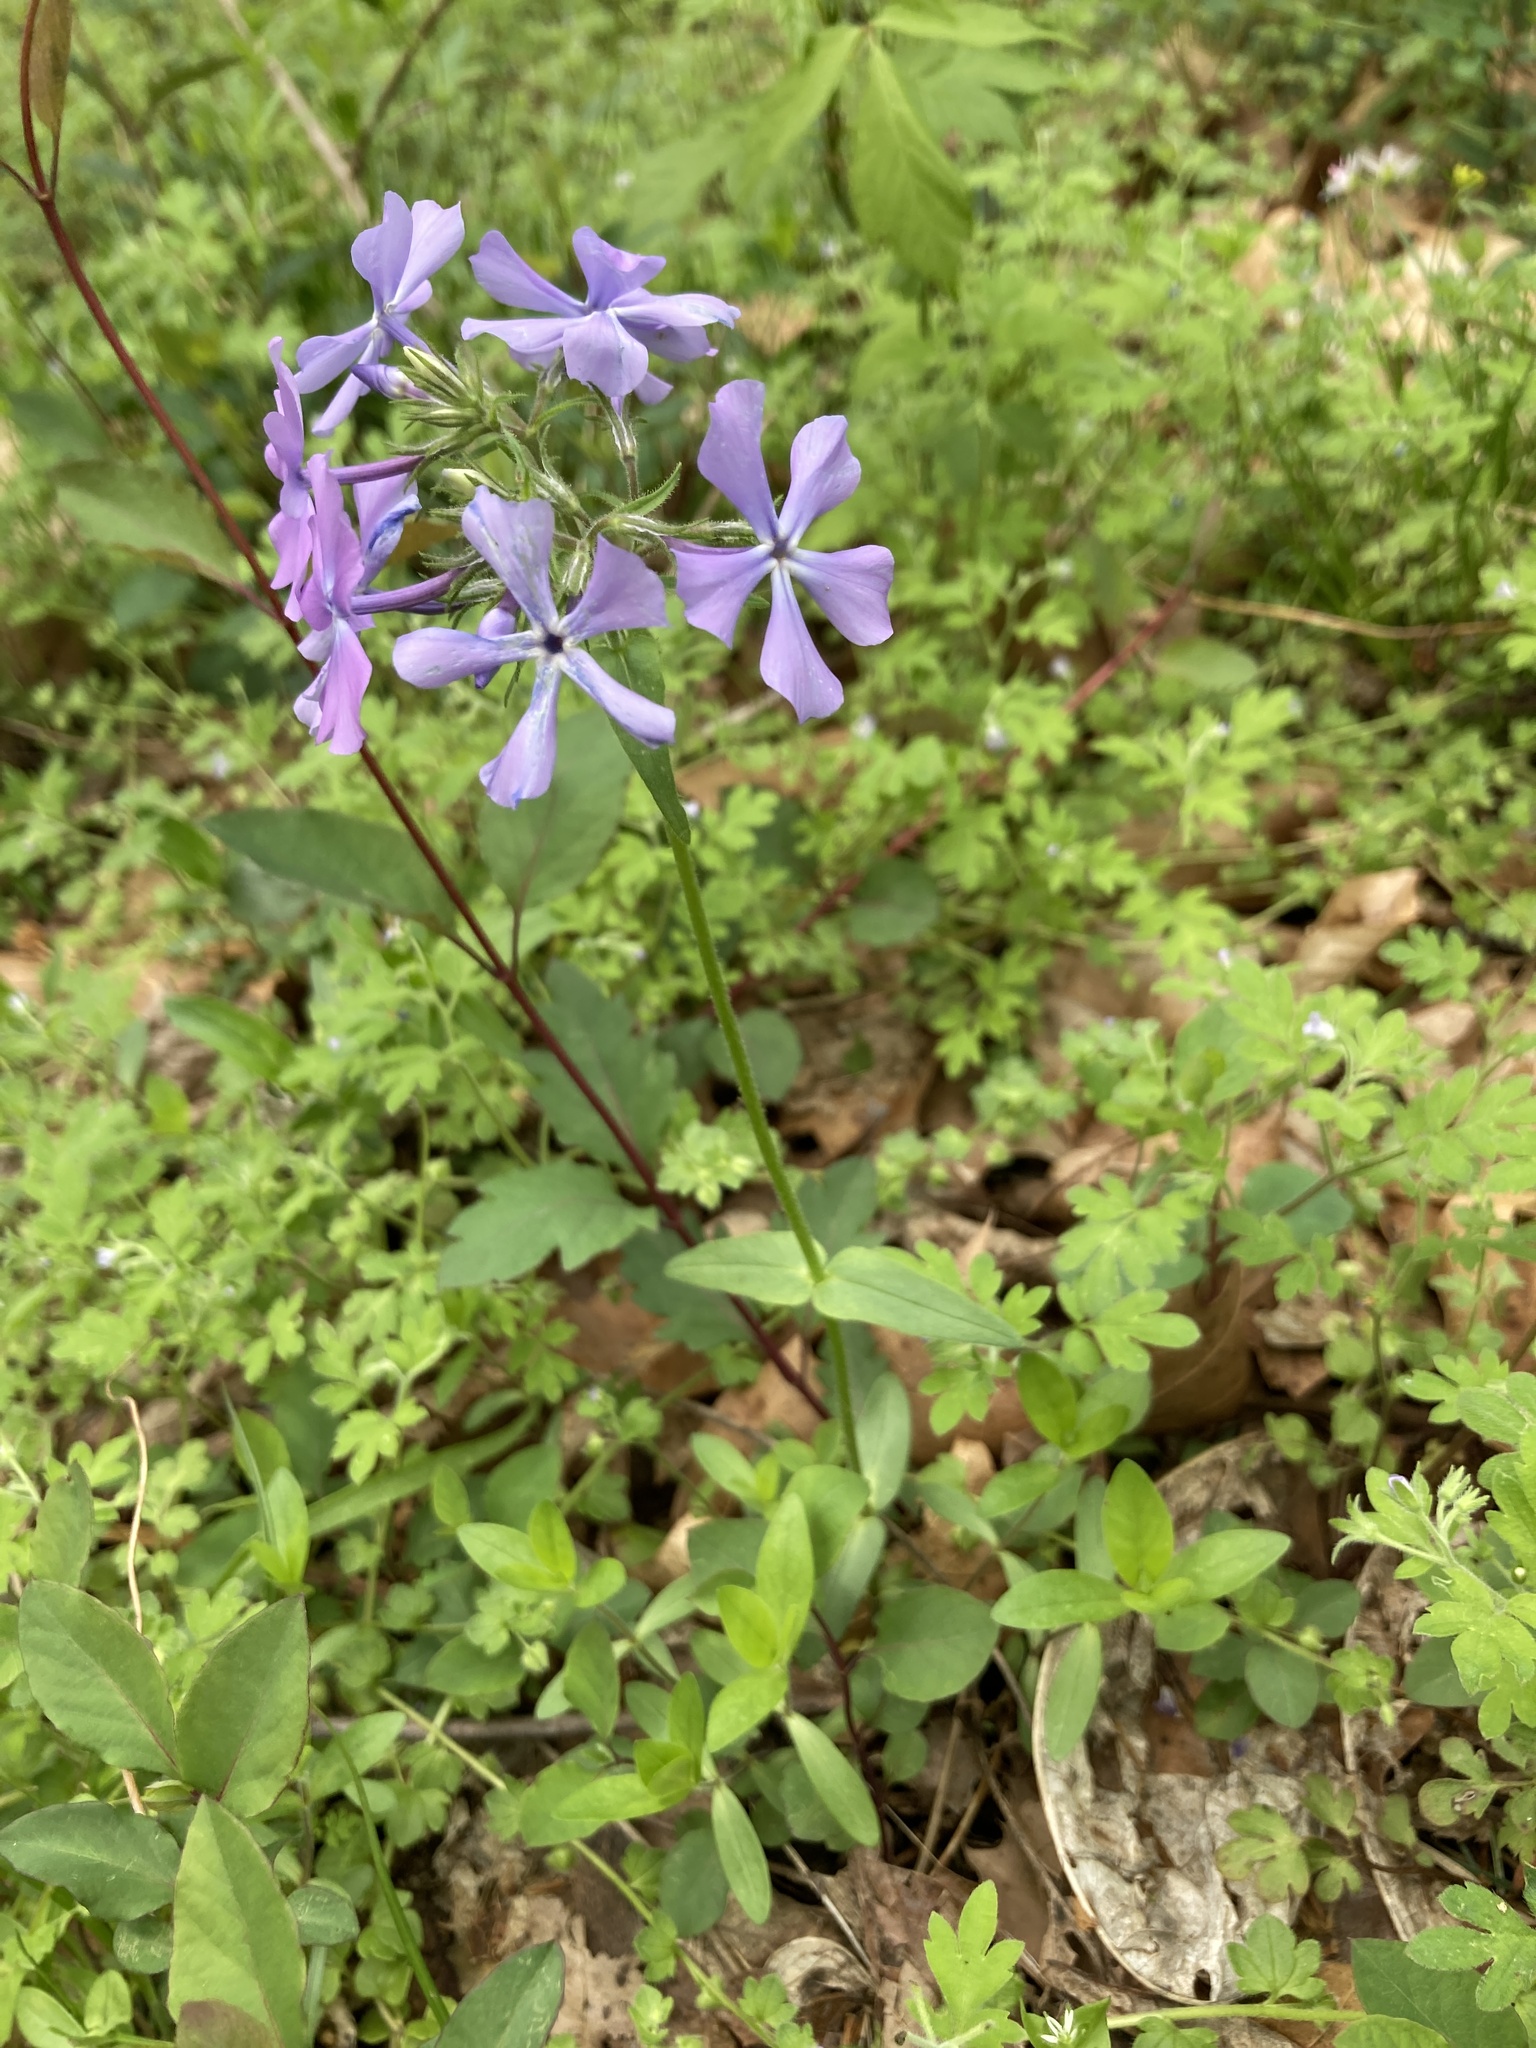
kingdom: Plantae
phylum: Tracheophyta
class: Magnoliopsida
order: Ericales
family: Polemoniaceae
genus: Phlox
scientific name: Phlox divaricata
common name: Blue phlox
